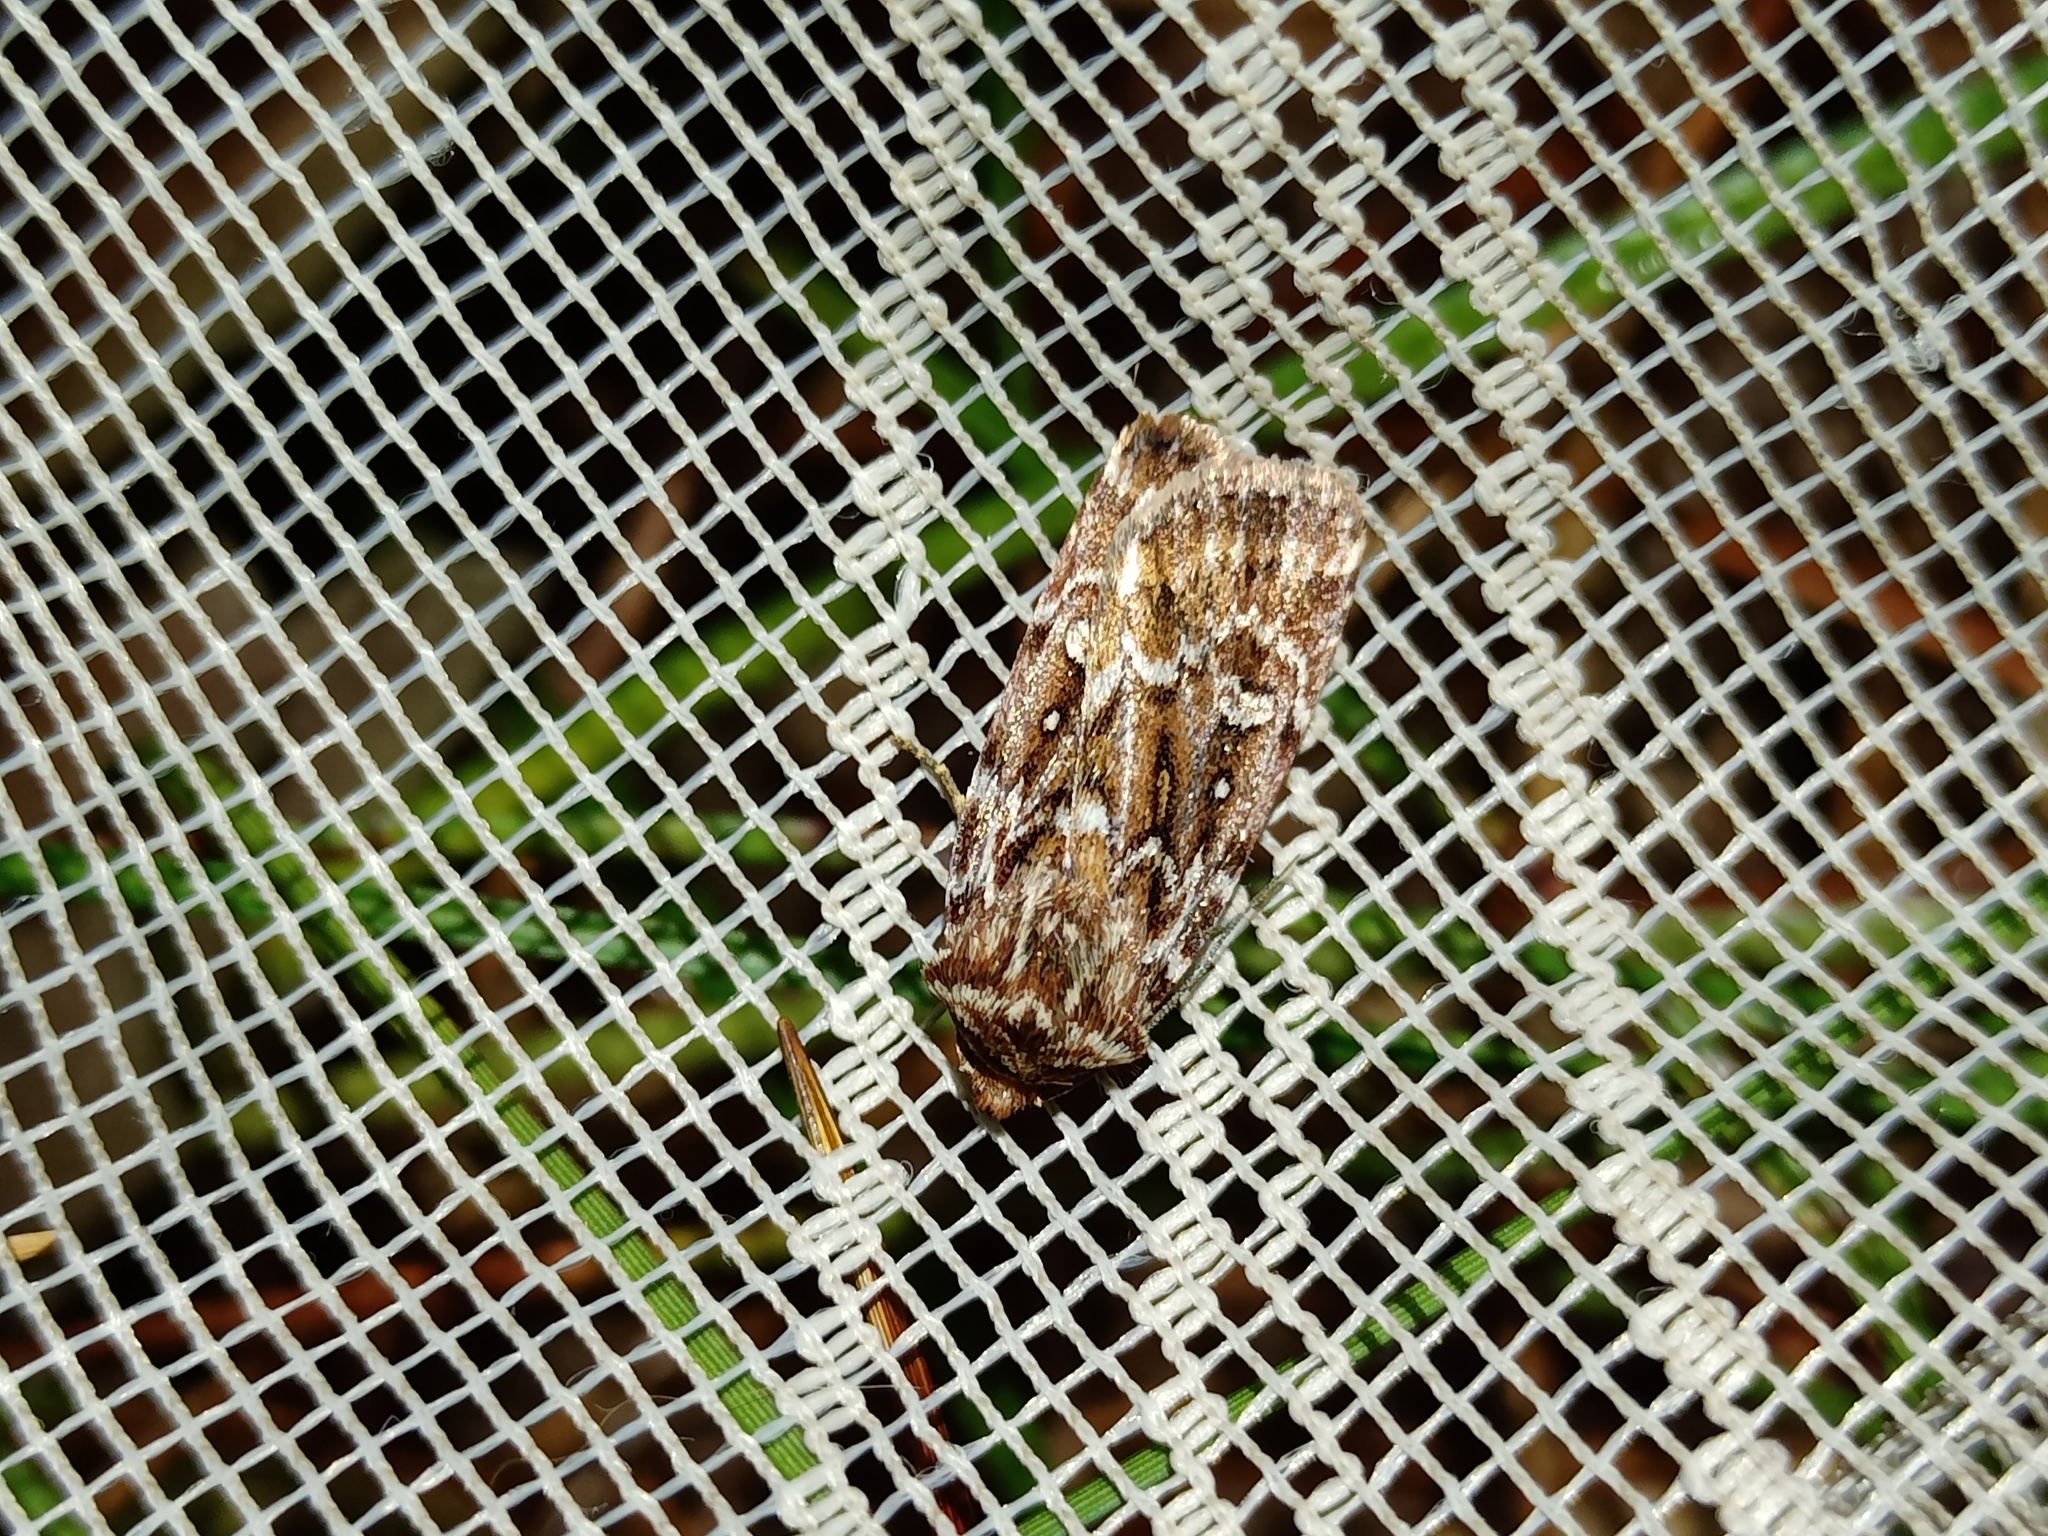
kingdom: Animalia
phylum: Arthropoda
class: Insecta
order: Lepidoptera
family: Noctuidae
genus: Lycophotia
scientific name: Lycophotia porphyrea
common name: True lover's knot
